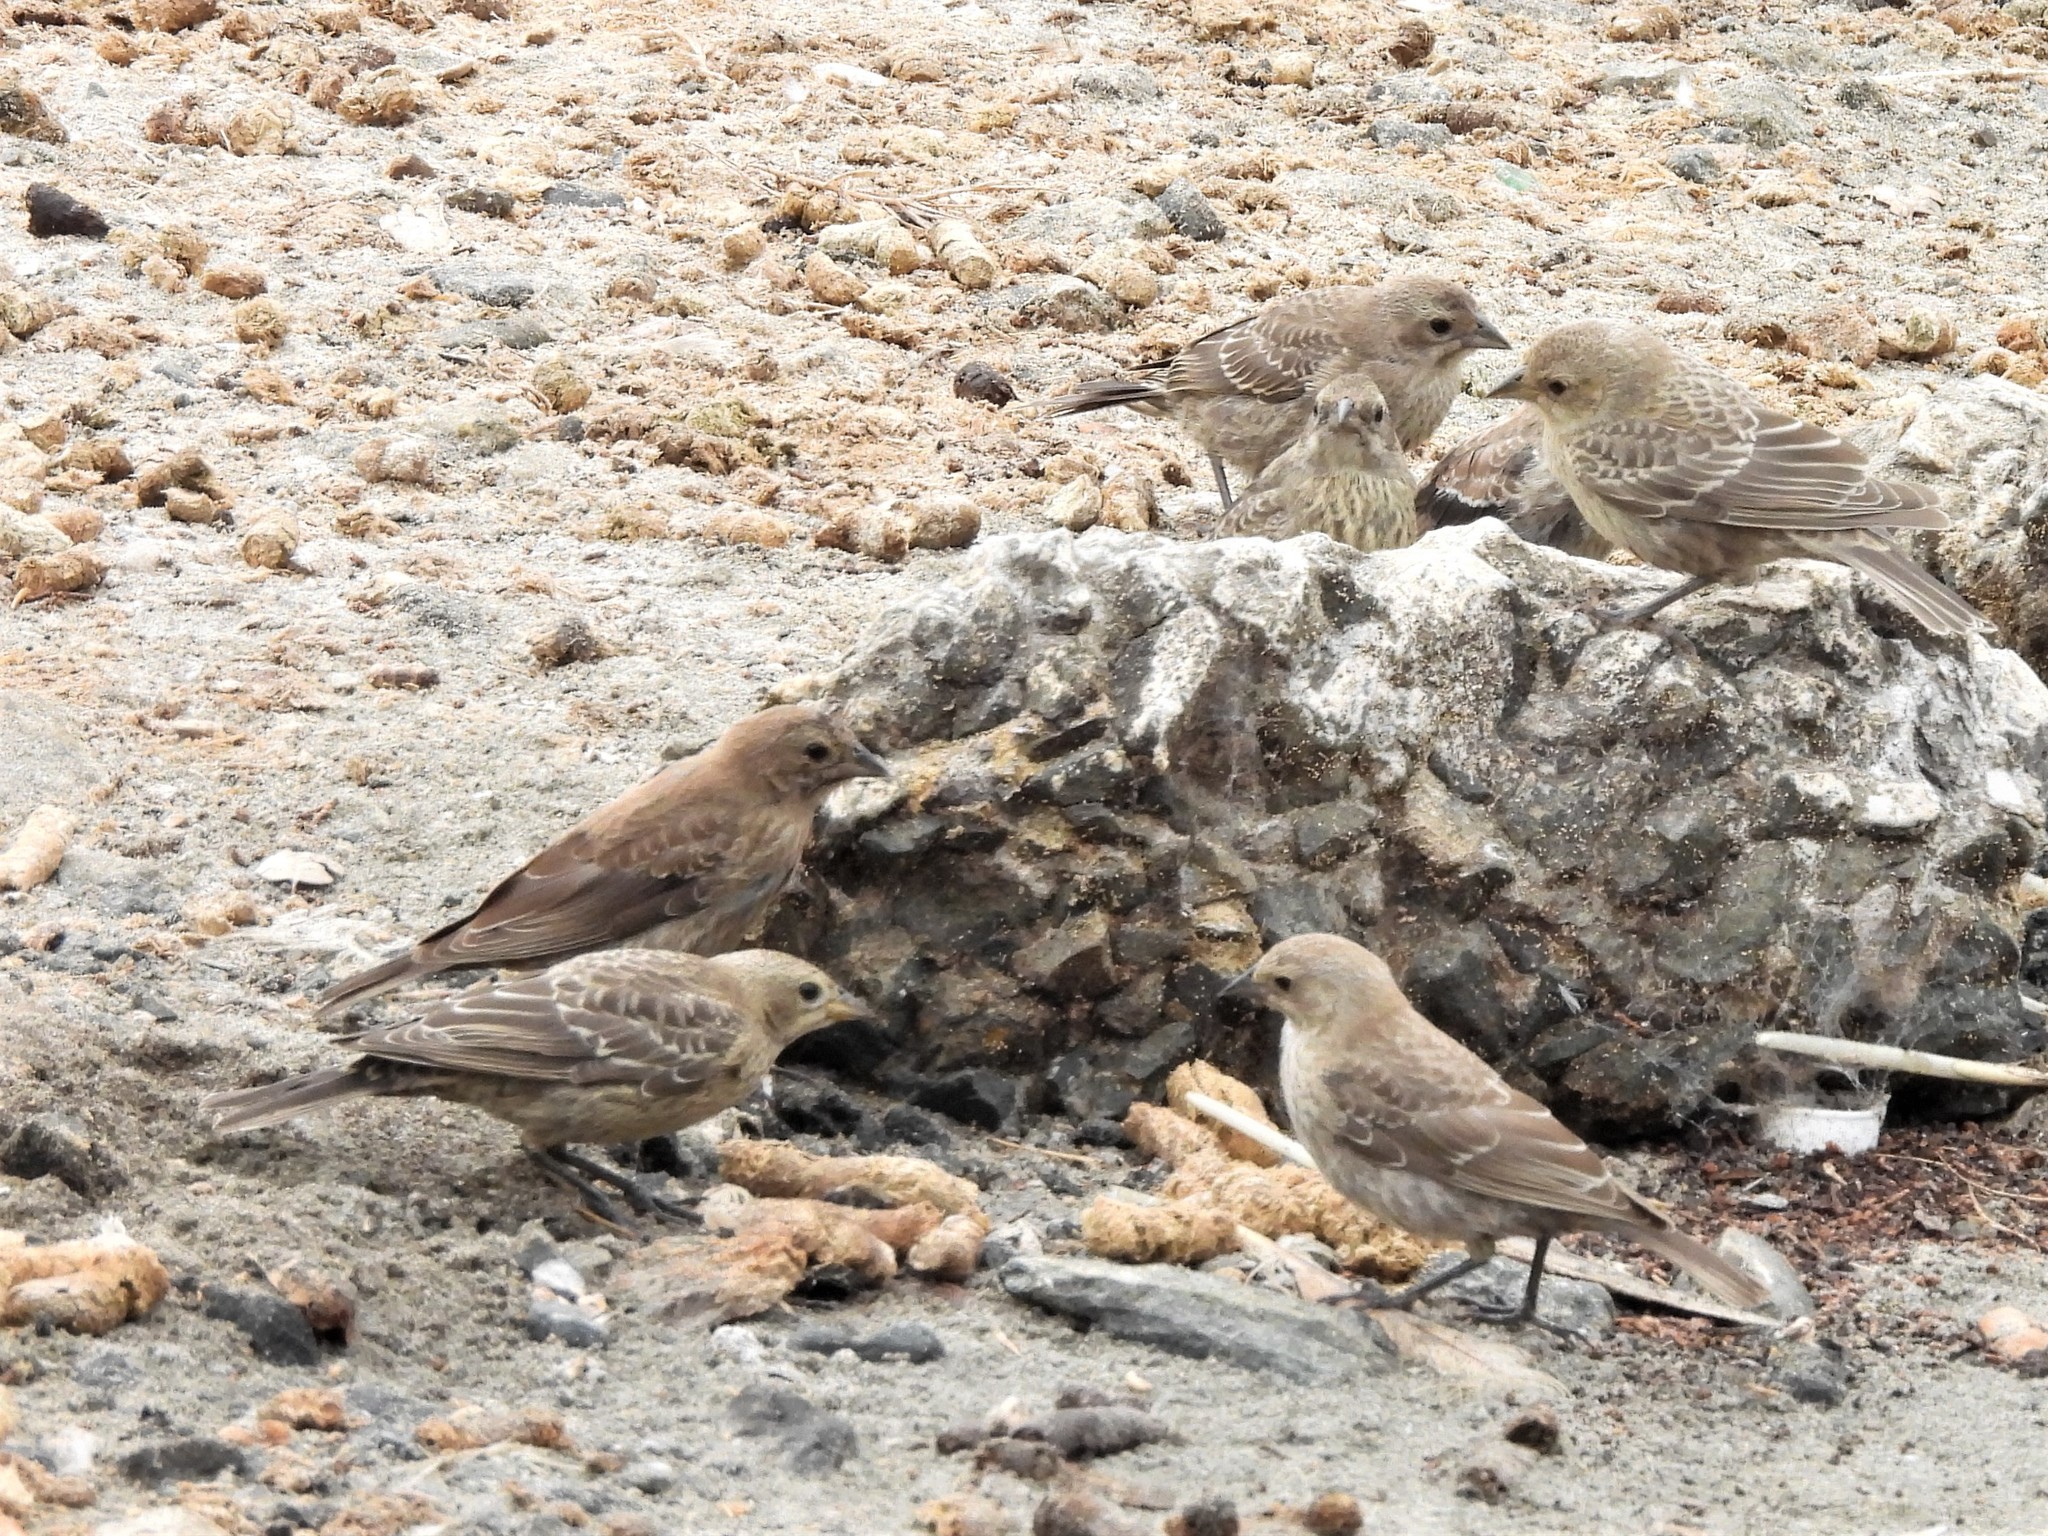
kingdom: Animalia
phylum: Chordata
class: Aves
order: Passeriformes
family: Icteridae
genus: Molothrus
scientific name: Molothrus ater
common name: Brown-headed cowbird
